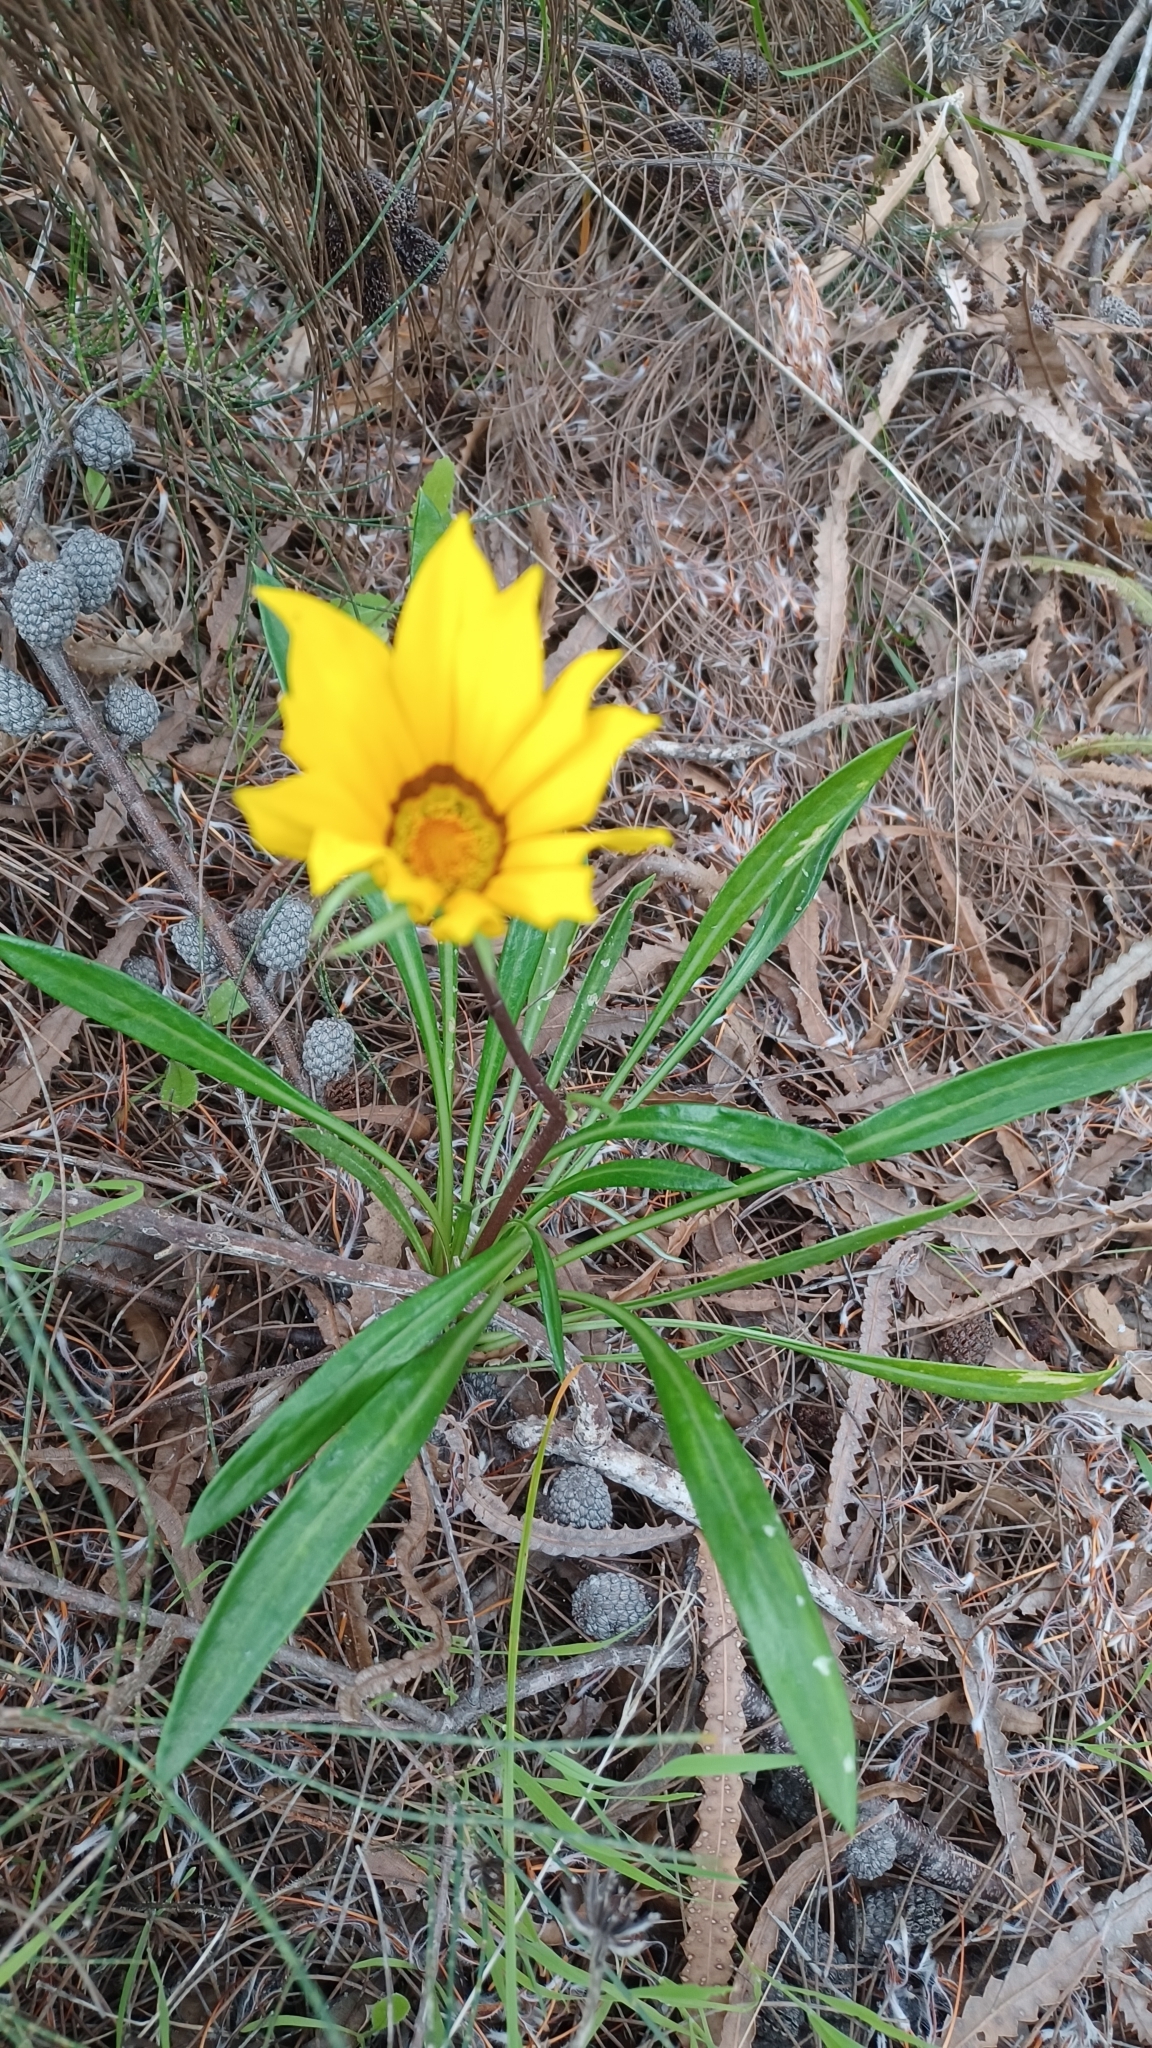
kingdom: Plantae
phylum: Tracheophyta
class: Magnoliopsida
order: Asterales
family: Asteraceae
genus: Gazania
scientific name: Gazania splendens
